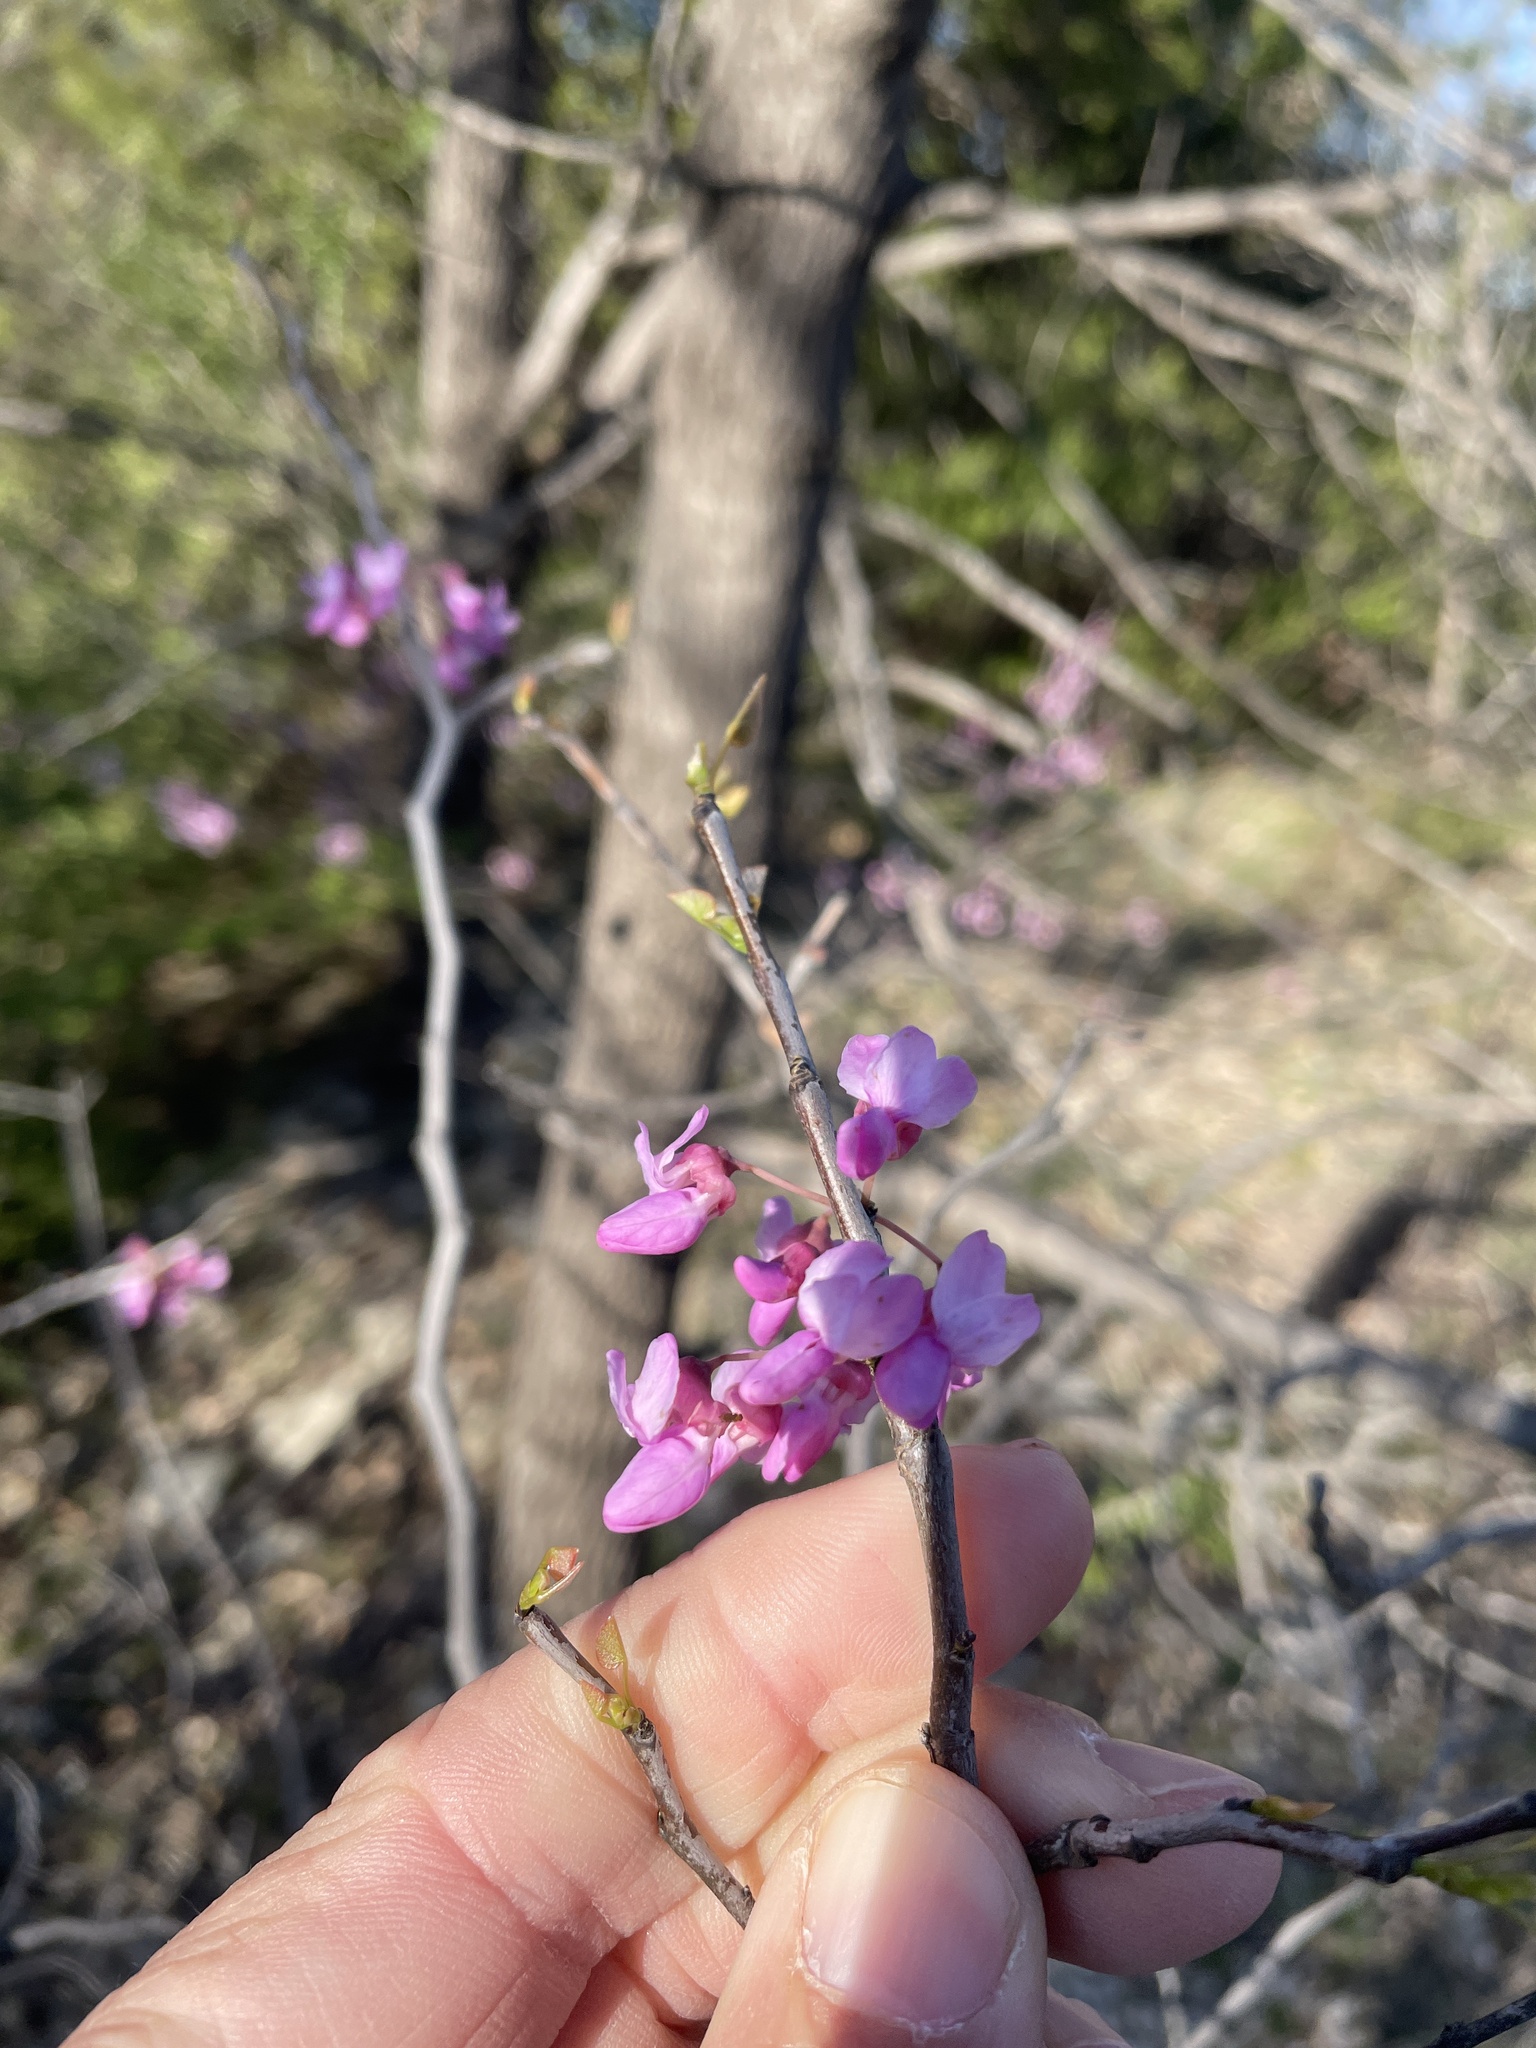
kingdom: Plantae
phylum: Tracheophyta
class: Magnoliopsida
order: Fabales
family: Fabaceae
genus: Cercis
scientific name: Cercis canadensis
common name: Eastern redbud
